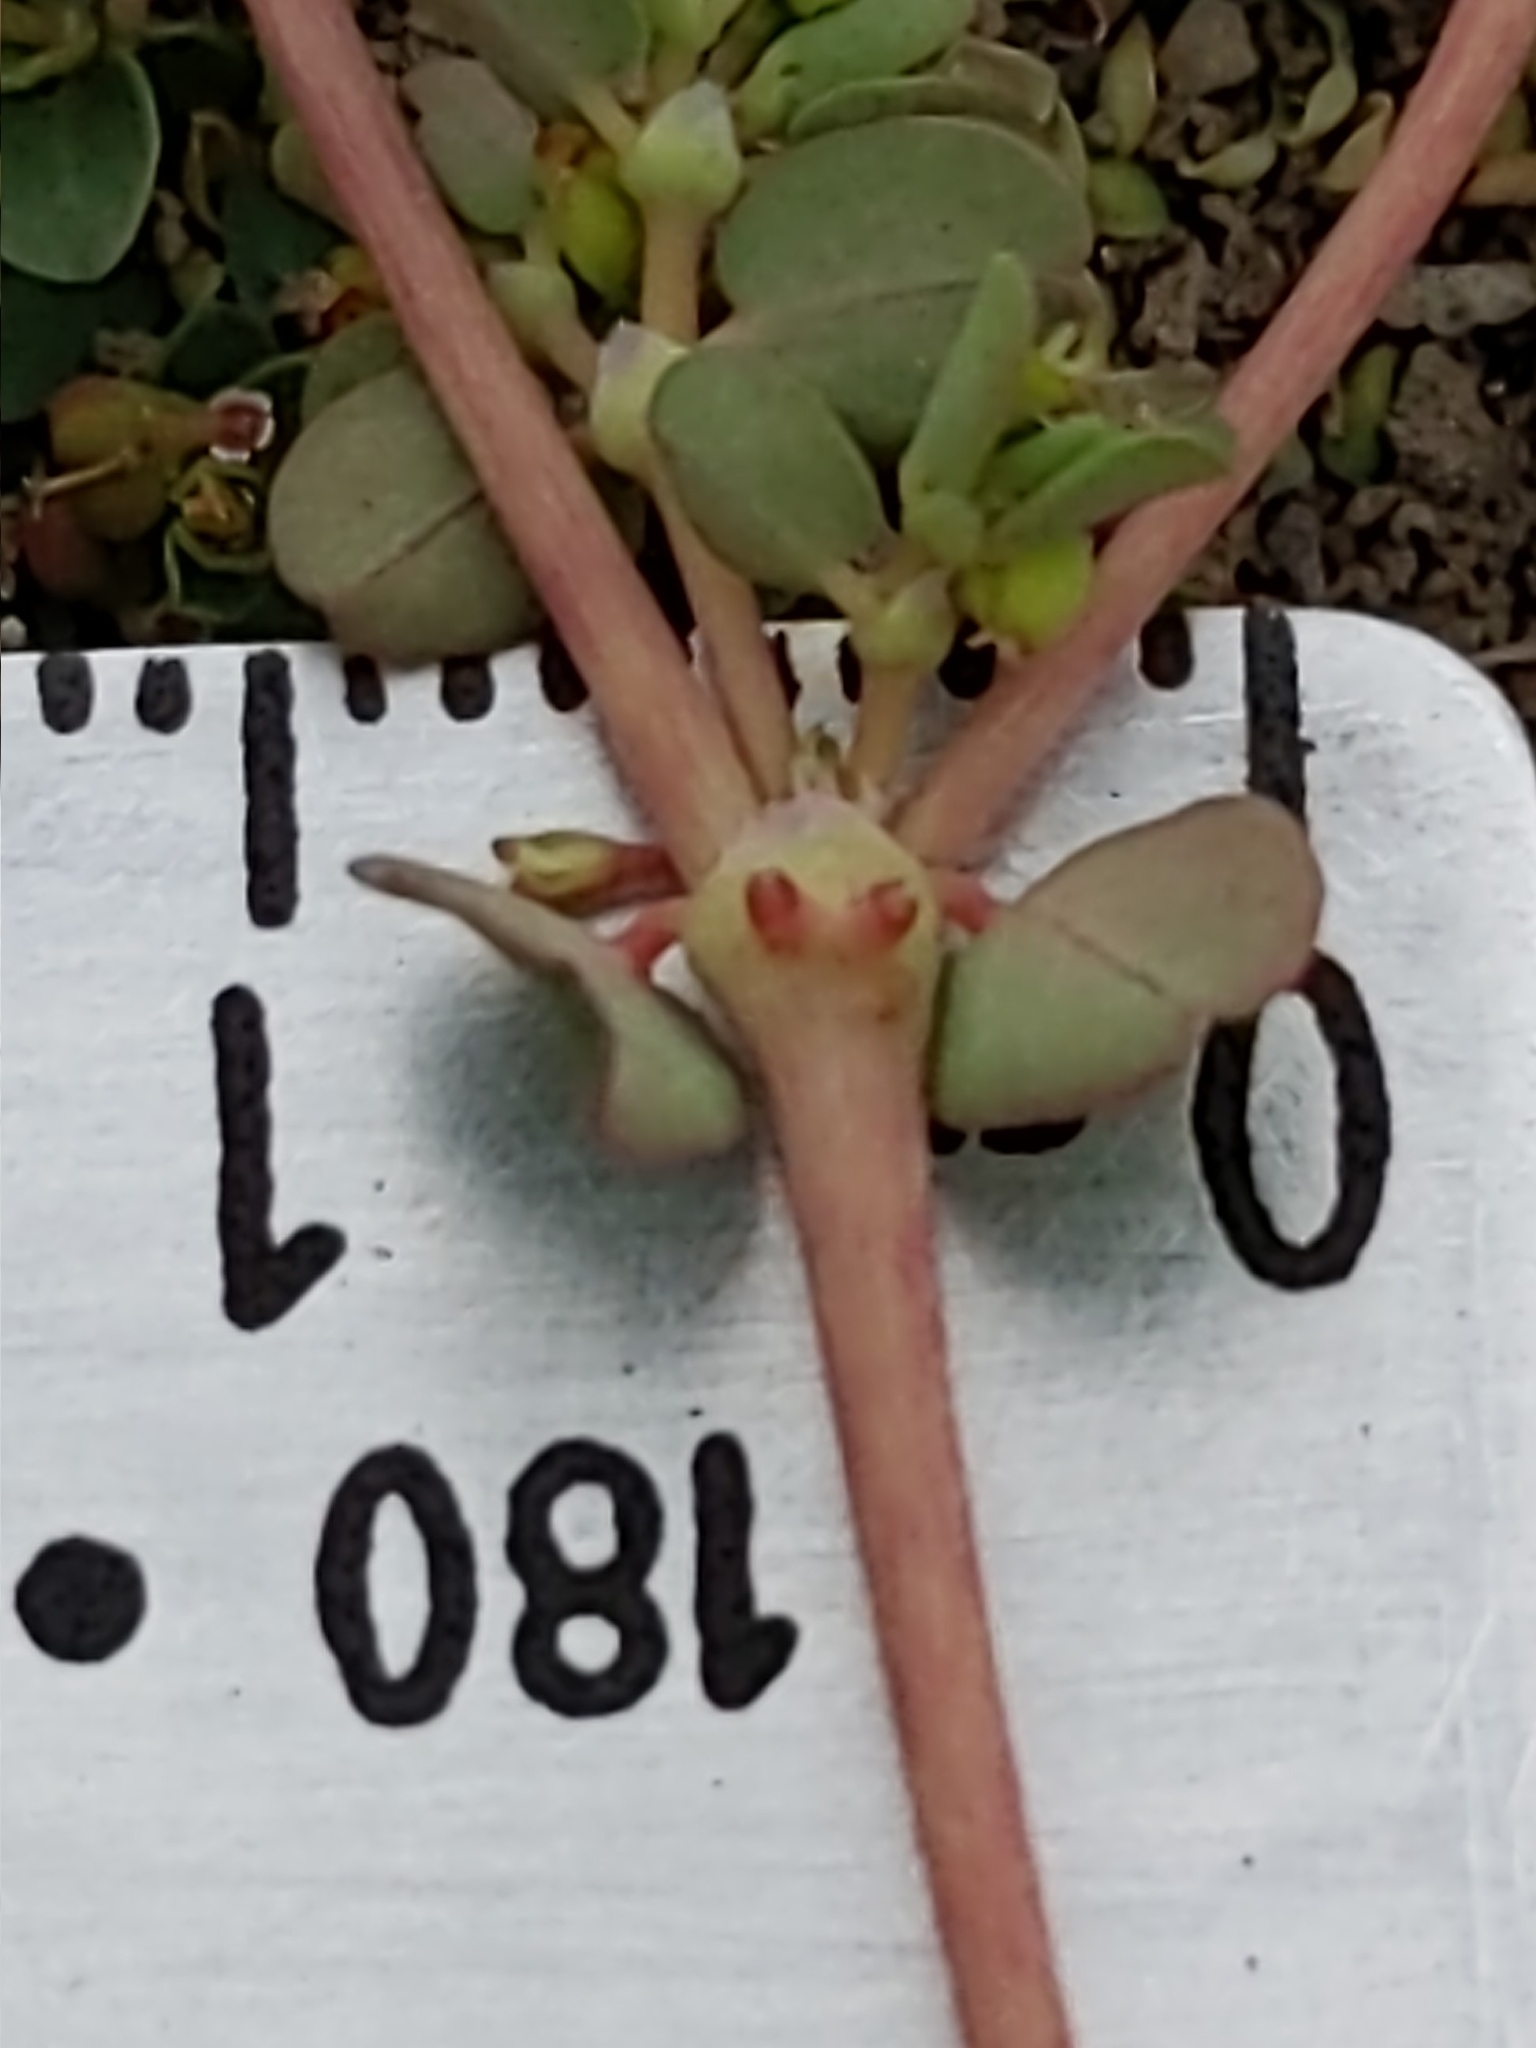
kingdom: Plantae
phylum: Tracheophyta
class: Magnoliopsida
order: Malpighiales
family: Euphorbiaceae
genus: Euphorbia
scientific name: Euphorbia serpens
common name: Matted sandmat
